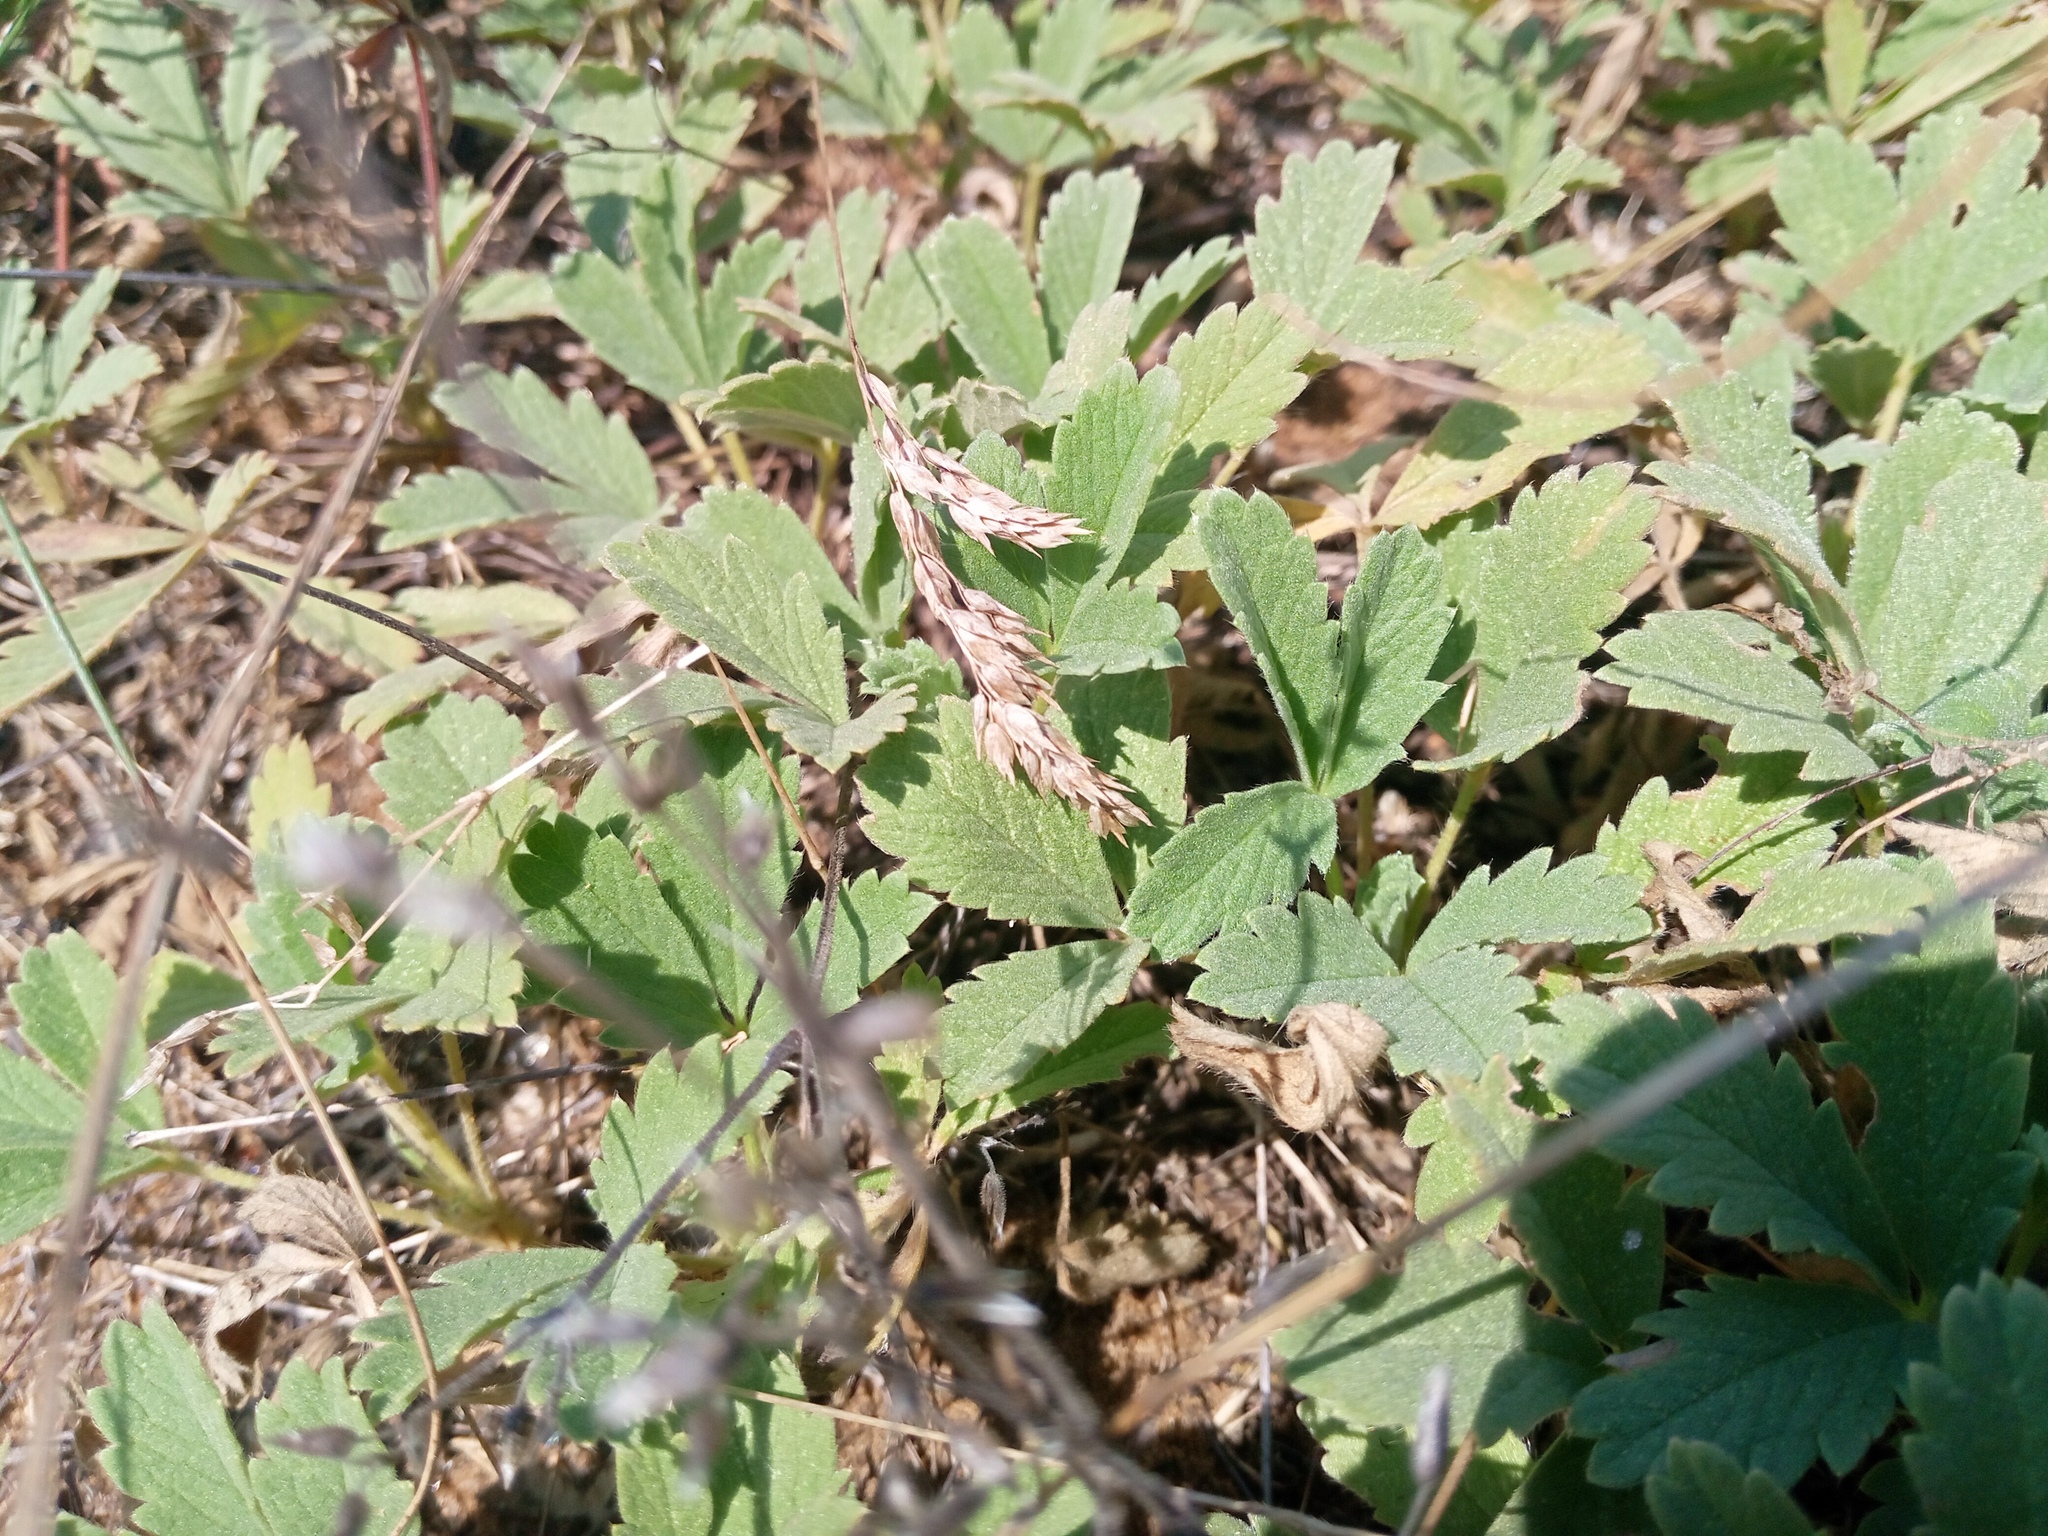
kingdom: Plantae
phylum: Tracheophyta
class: Magnoliopsida
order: Rosales
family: Rosaceae
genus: Potentilla
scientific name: Potentilla incana
